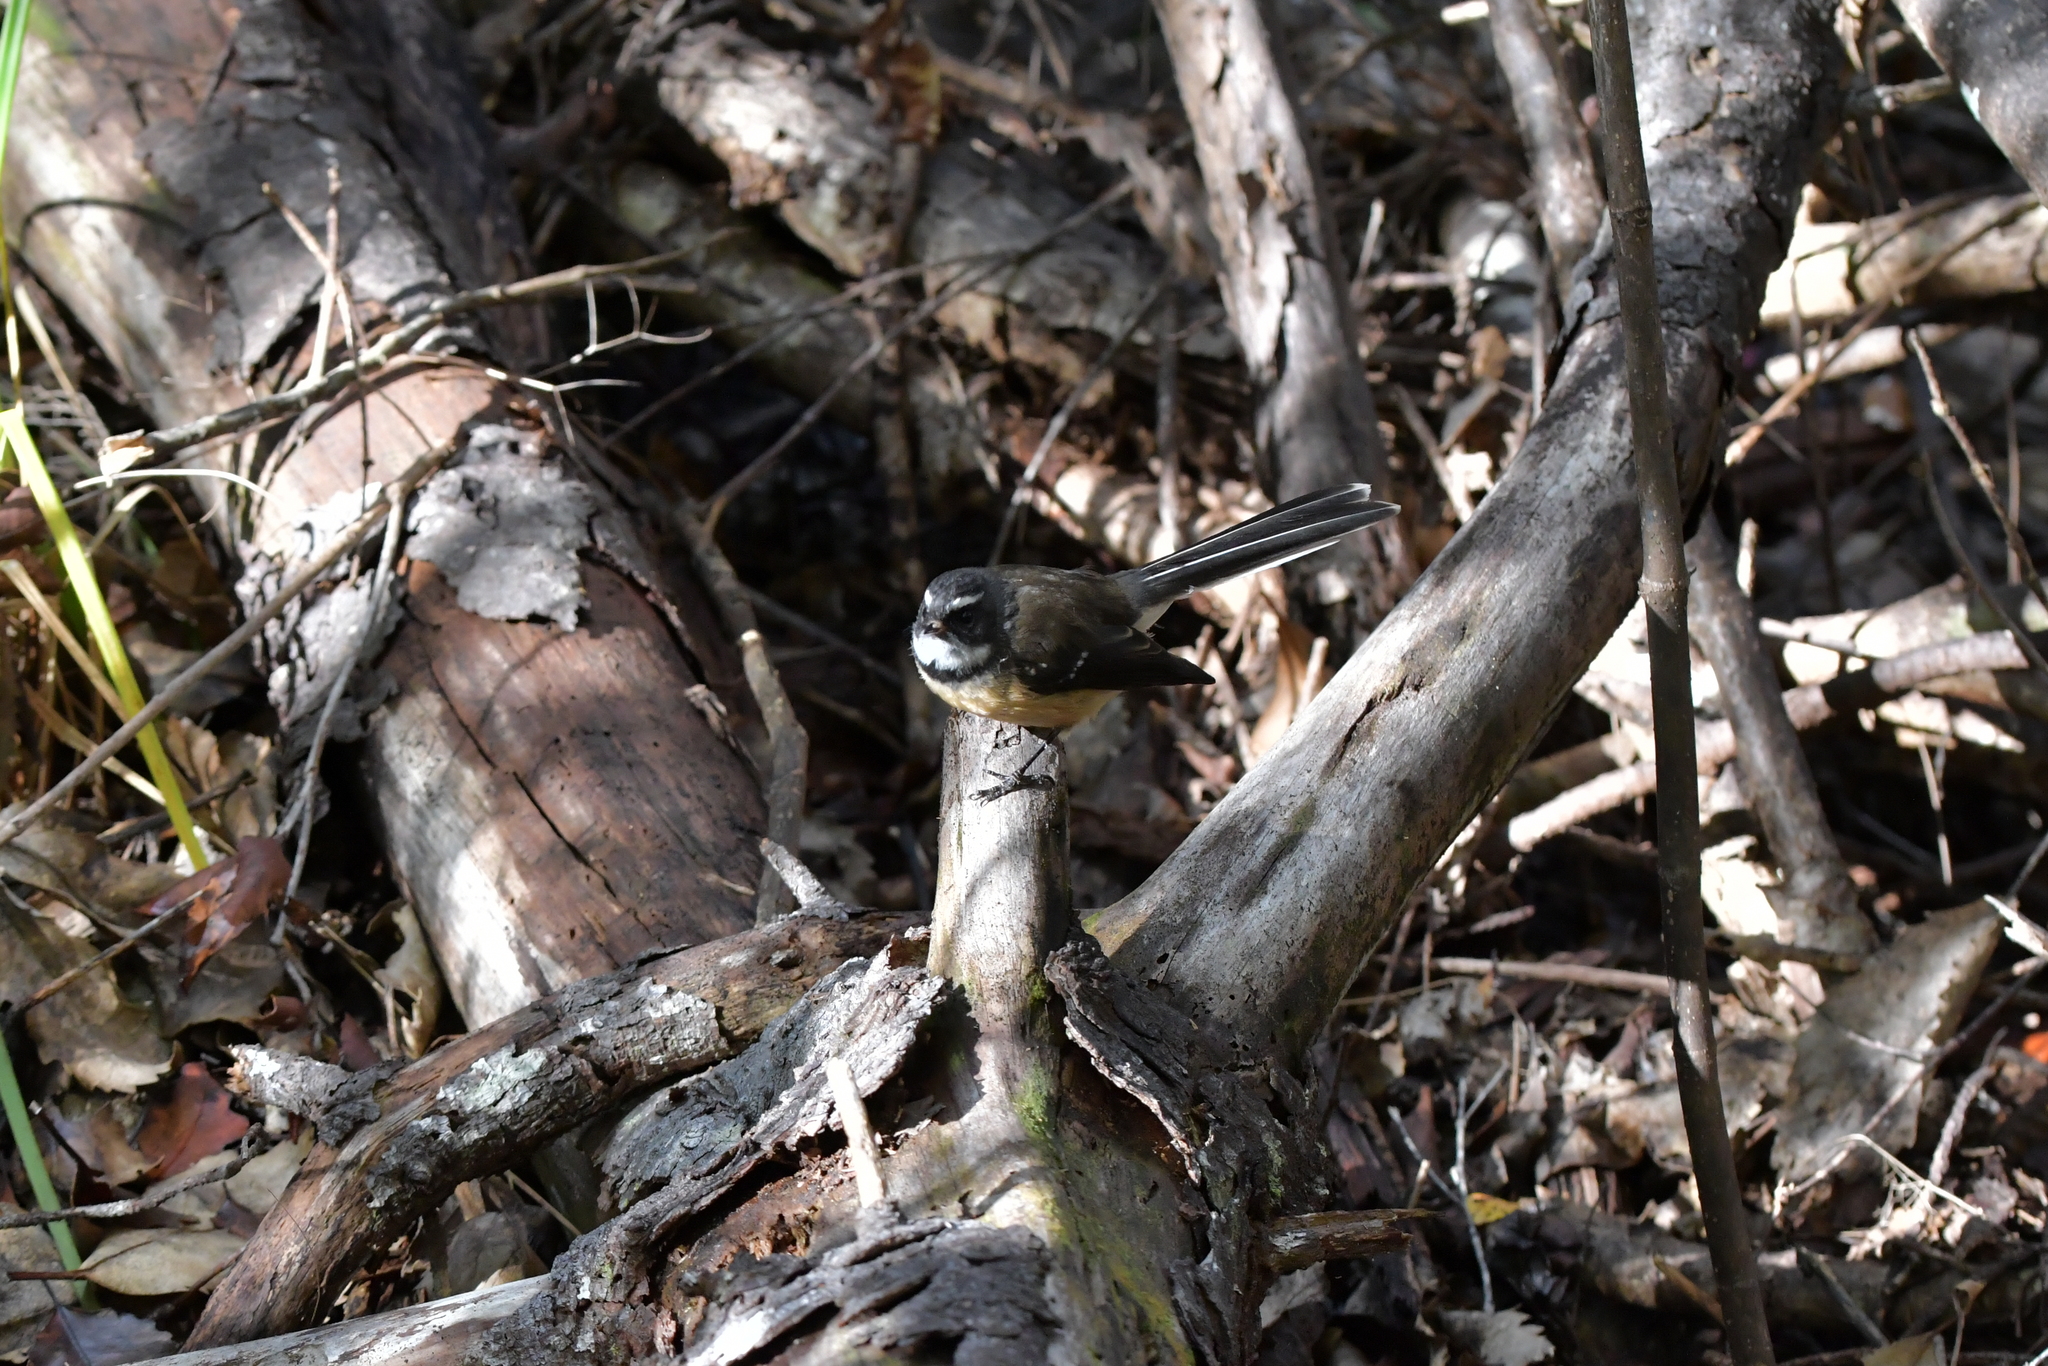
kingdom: Animalia
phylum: Chordata
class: Aves
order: Passeriformes
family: Rhipiduridae
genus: Rhipidura
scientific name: Rhipidura fuliginosa
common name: New zealand fantail
